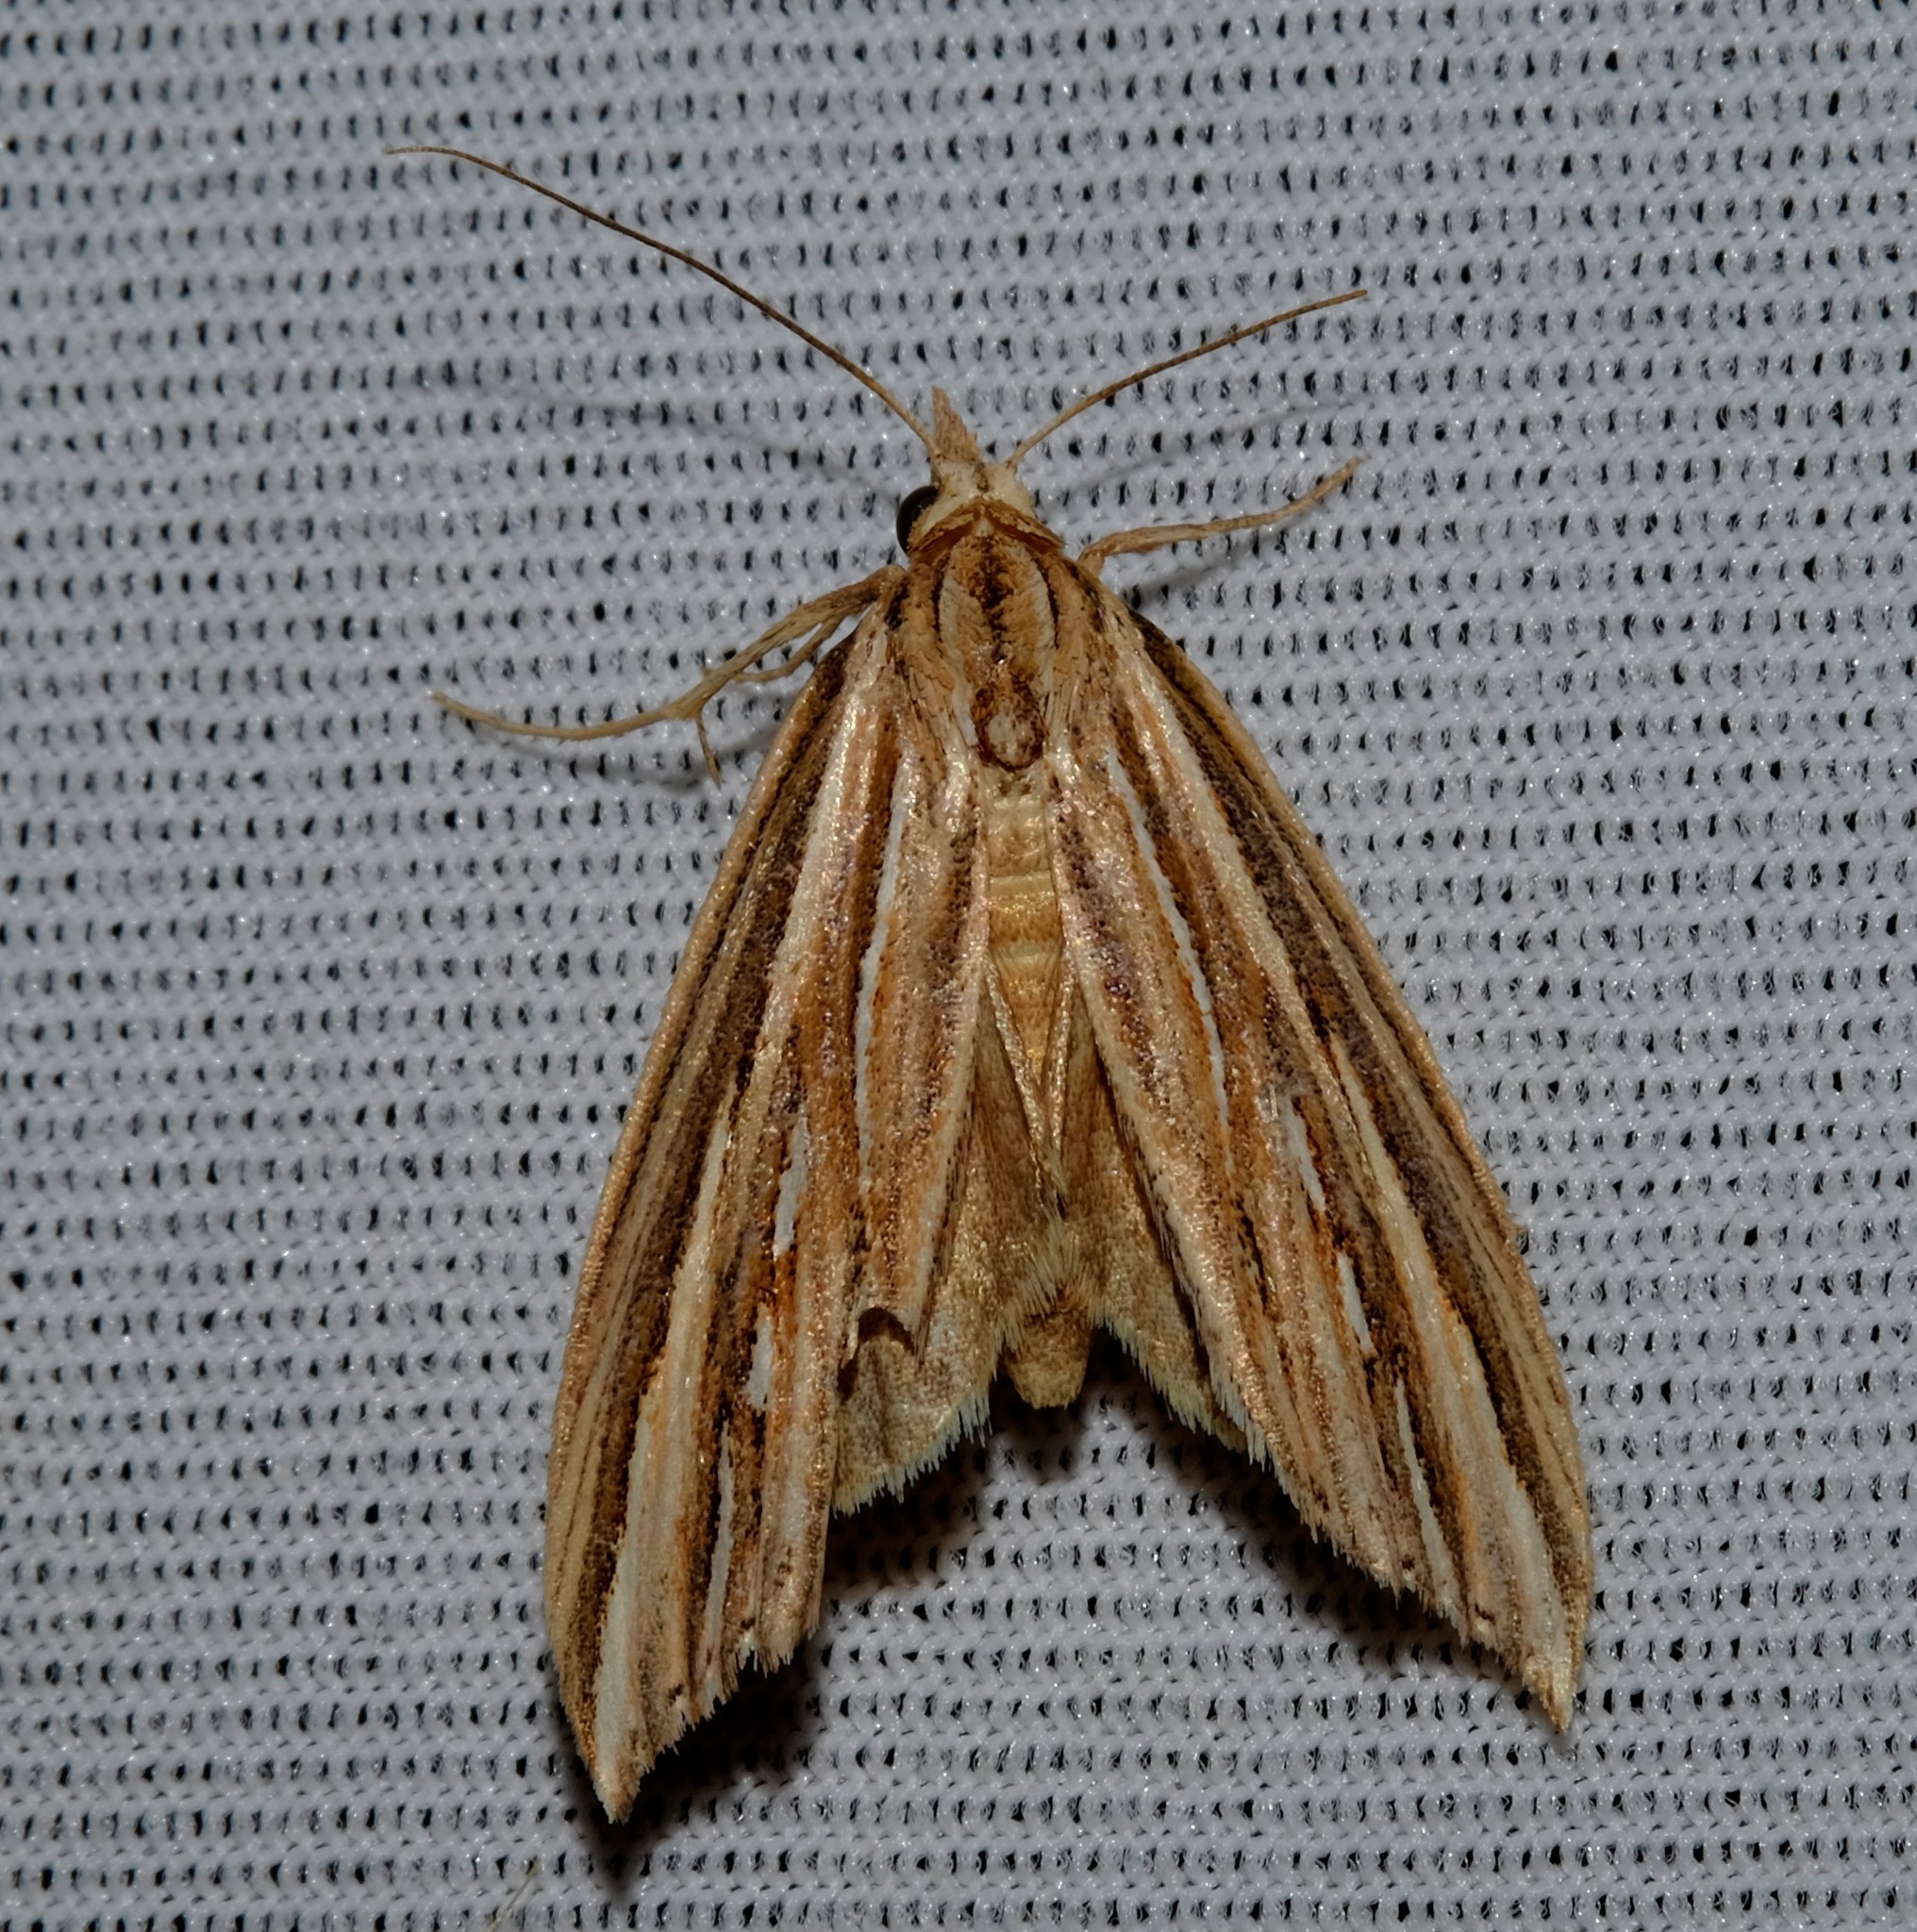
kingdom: Animalia
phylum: Arthropoda
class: Insecta
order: Lepidoptera
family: Erebidae
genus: Meyrickella
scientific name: Meyrickella ruptellus
